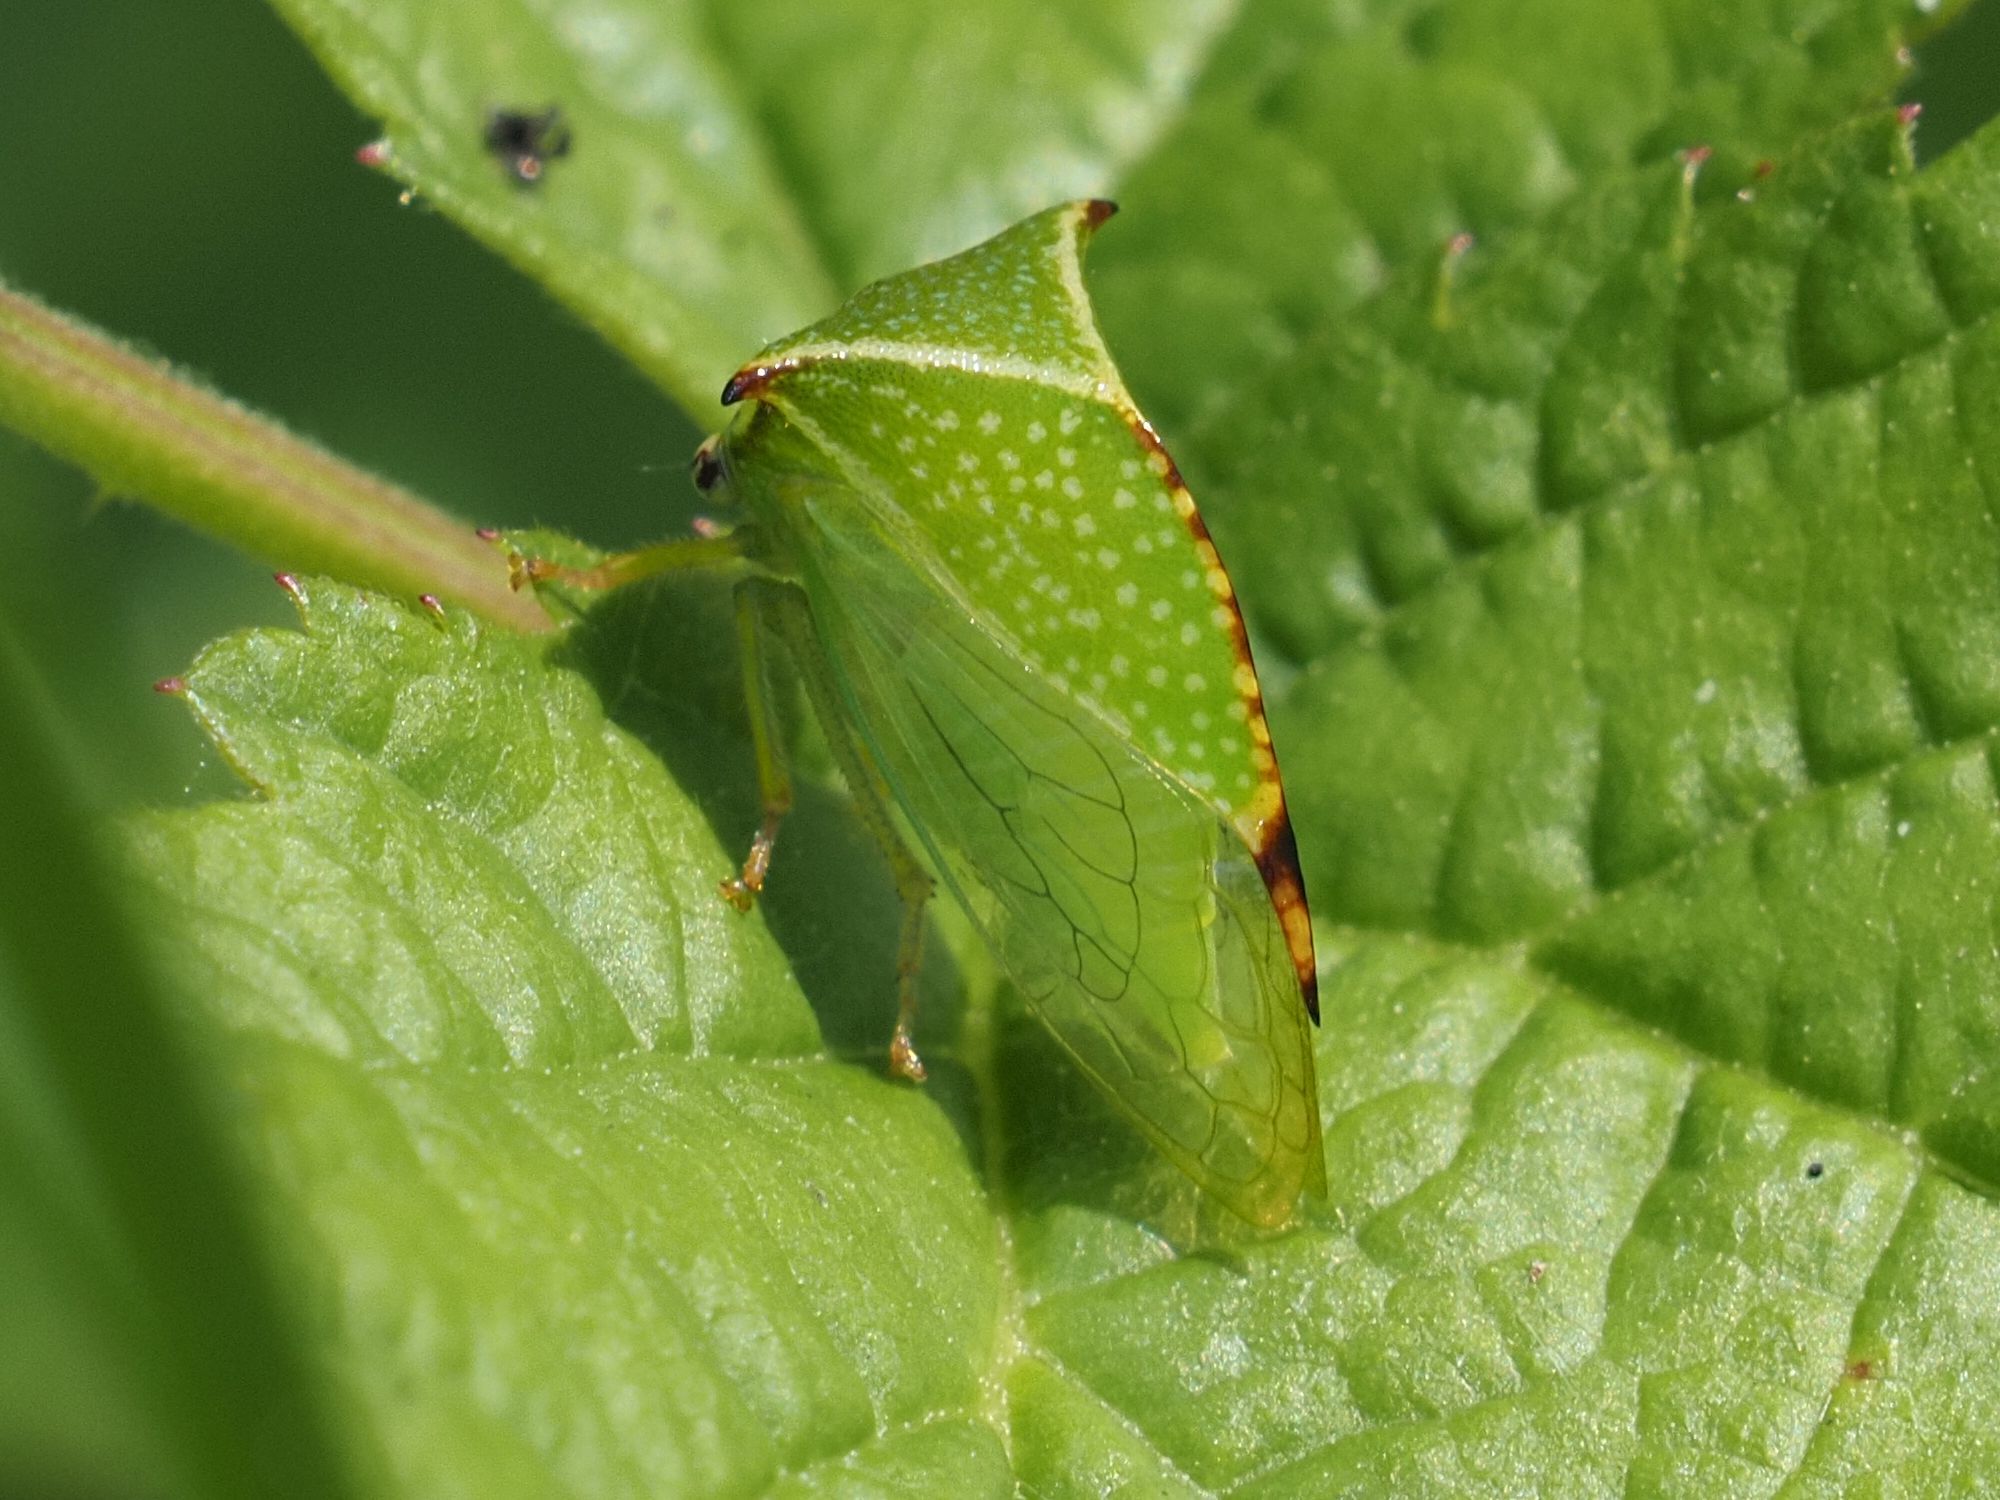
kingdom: Animalia
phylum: Arthropoda
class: Insecta
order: Hemiptera
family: Membracidae
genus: Stictocephala
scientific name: Stictocephala bisonia
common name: American buffalo treehopper
